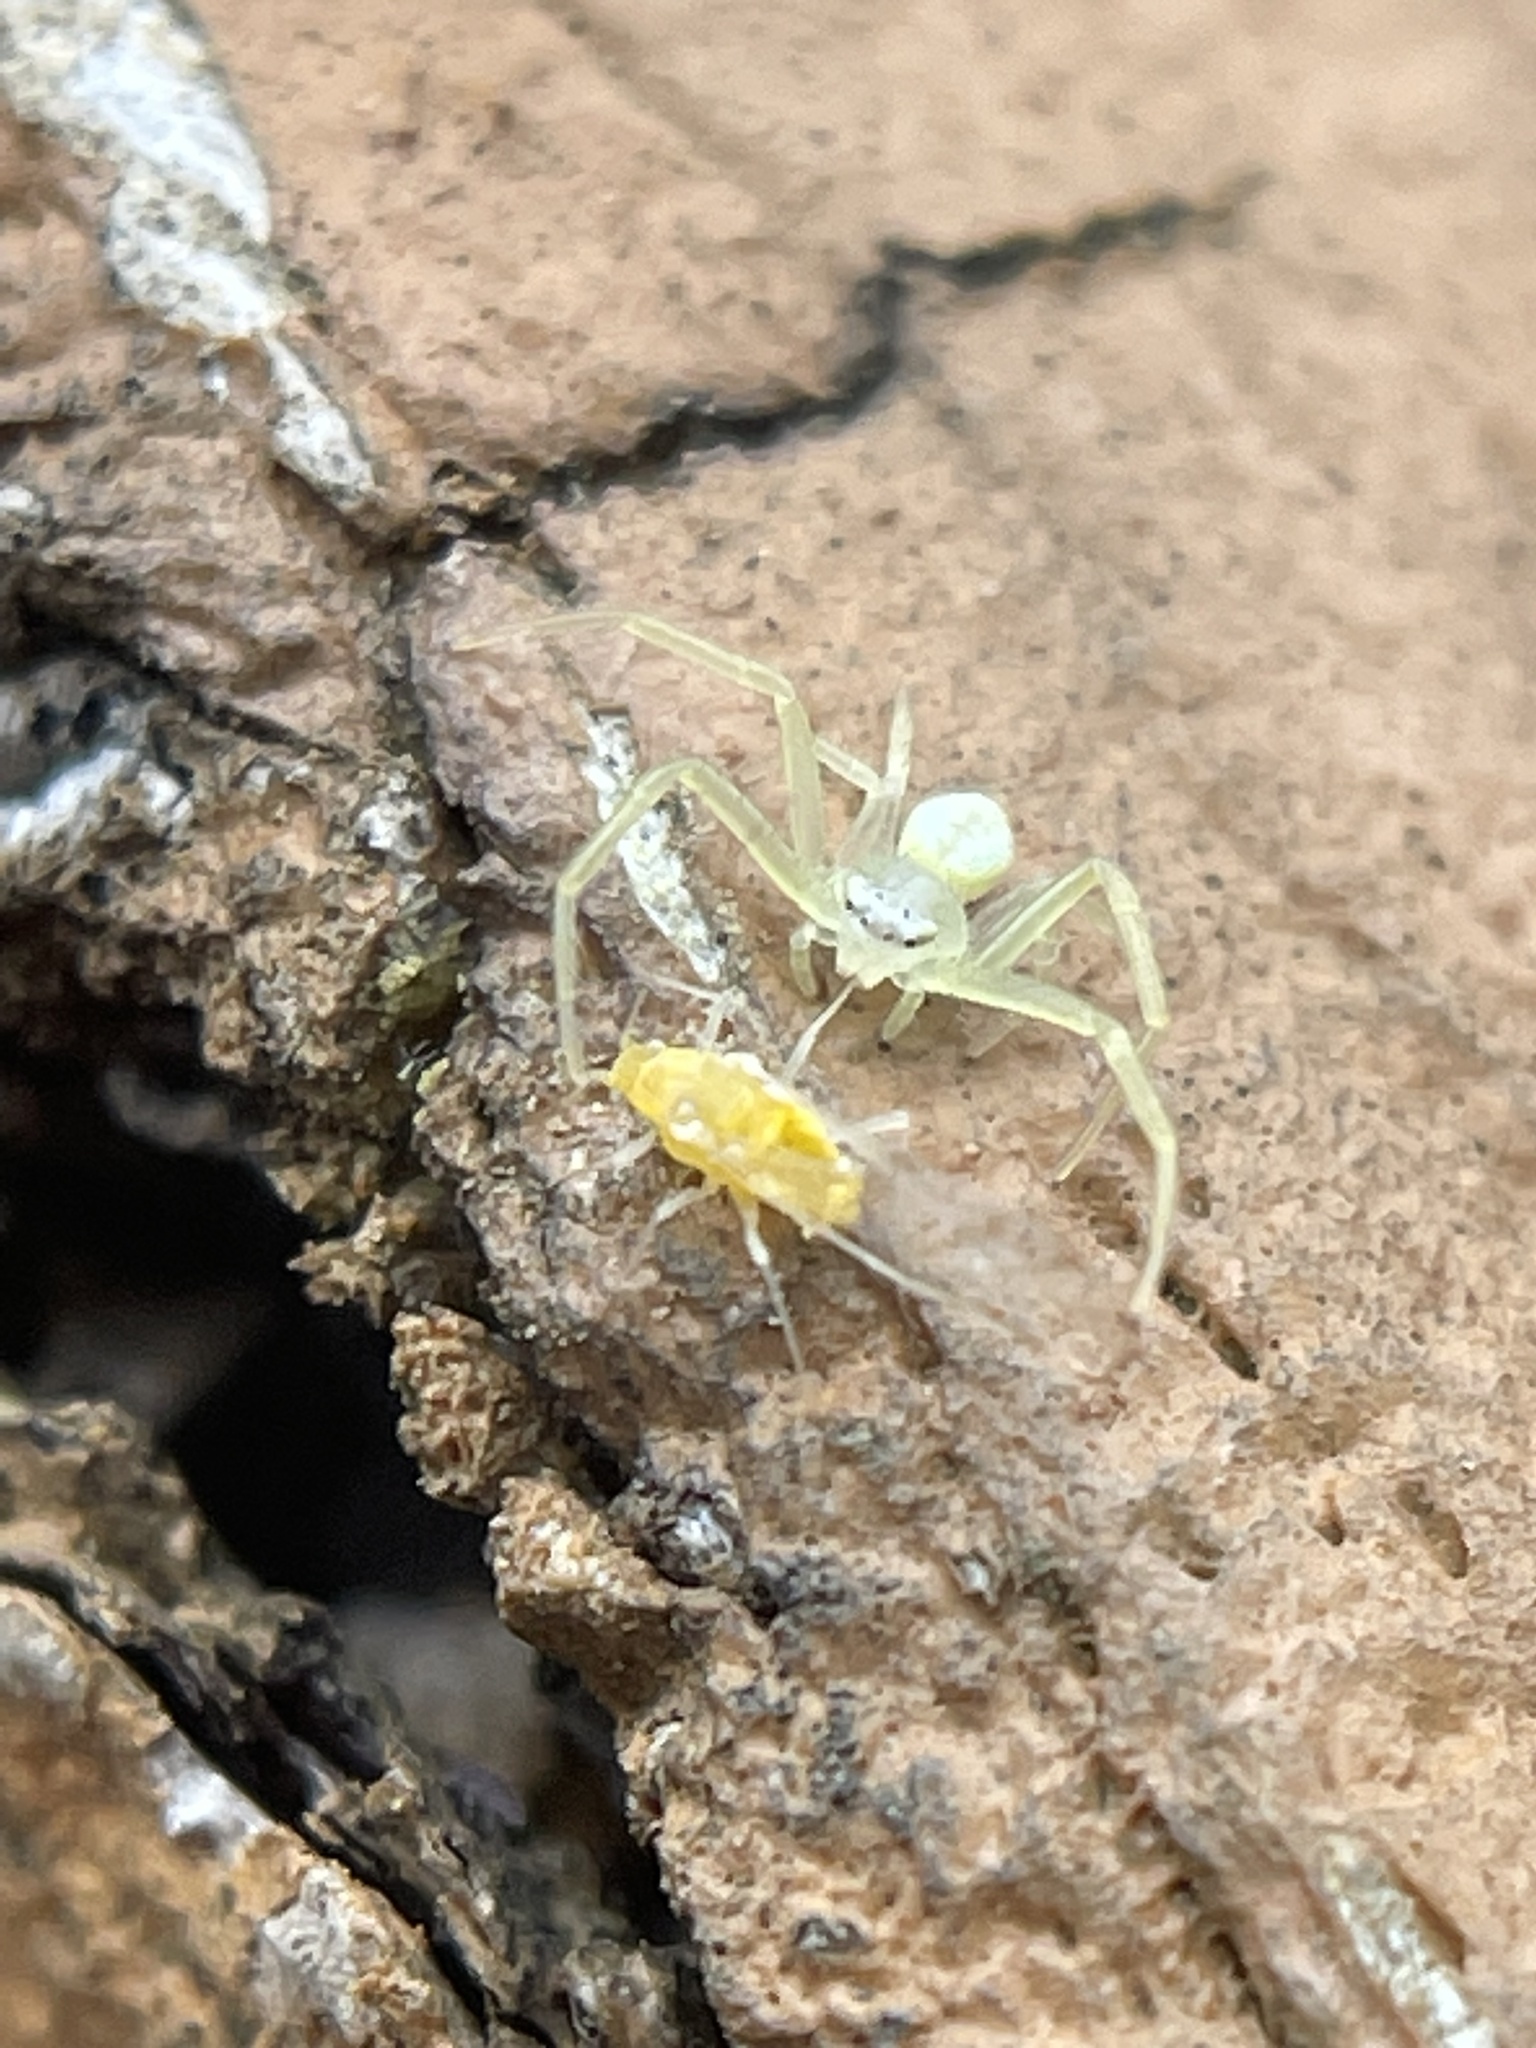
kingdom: Animalia
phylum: Arthropoda
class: Arachnida
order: Araneae
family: Thomisidae
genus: Misumessus
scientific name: Misumessus oblongus
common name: American green crab spider
